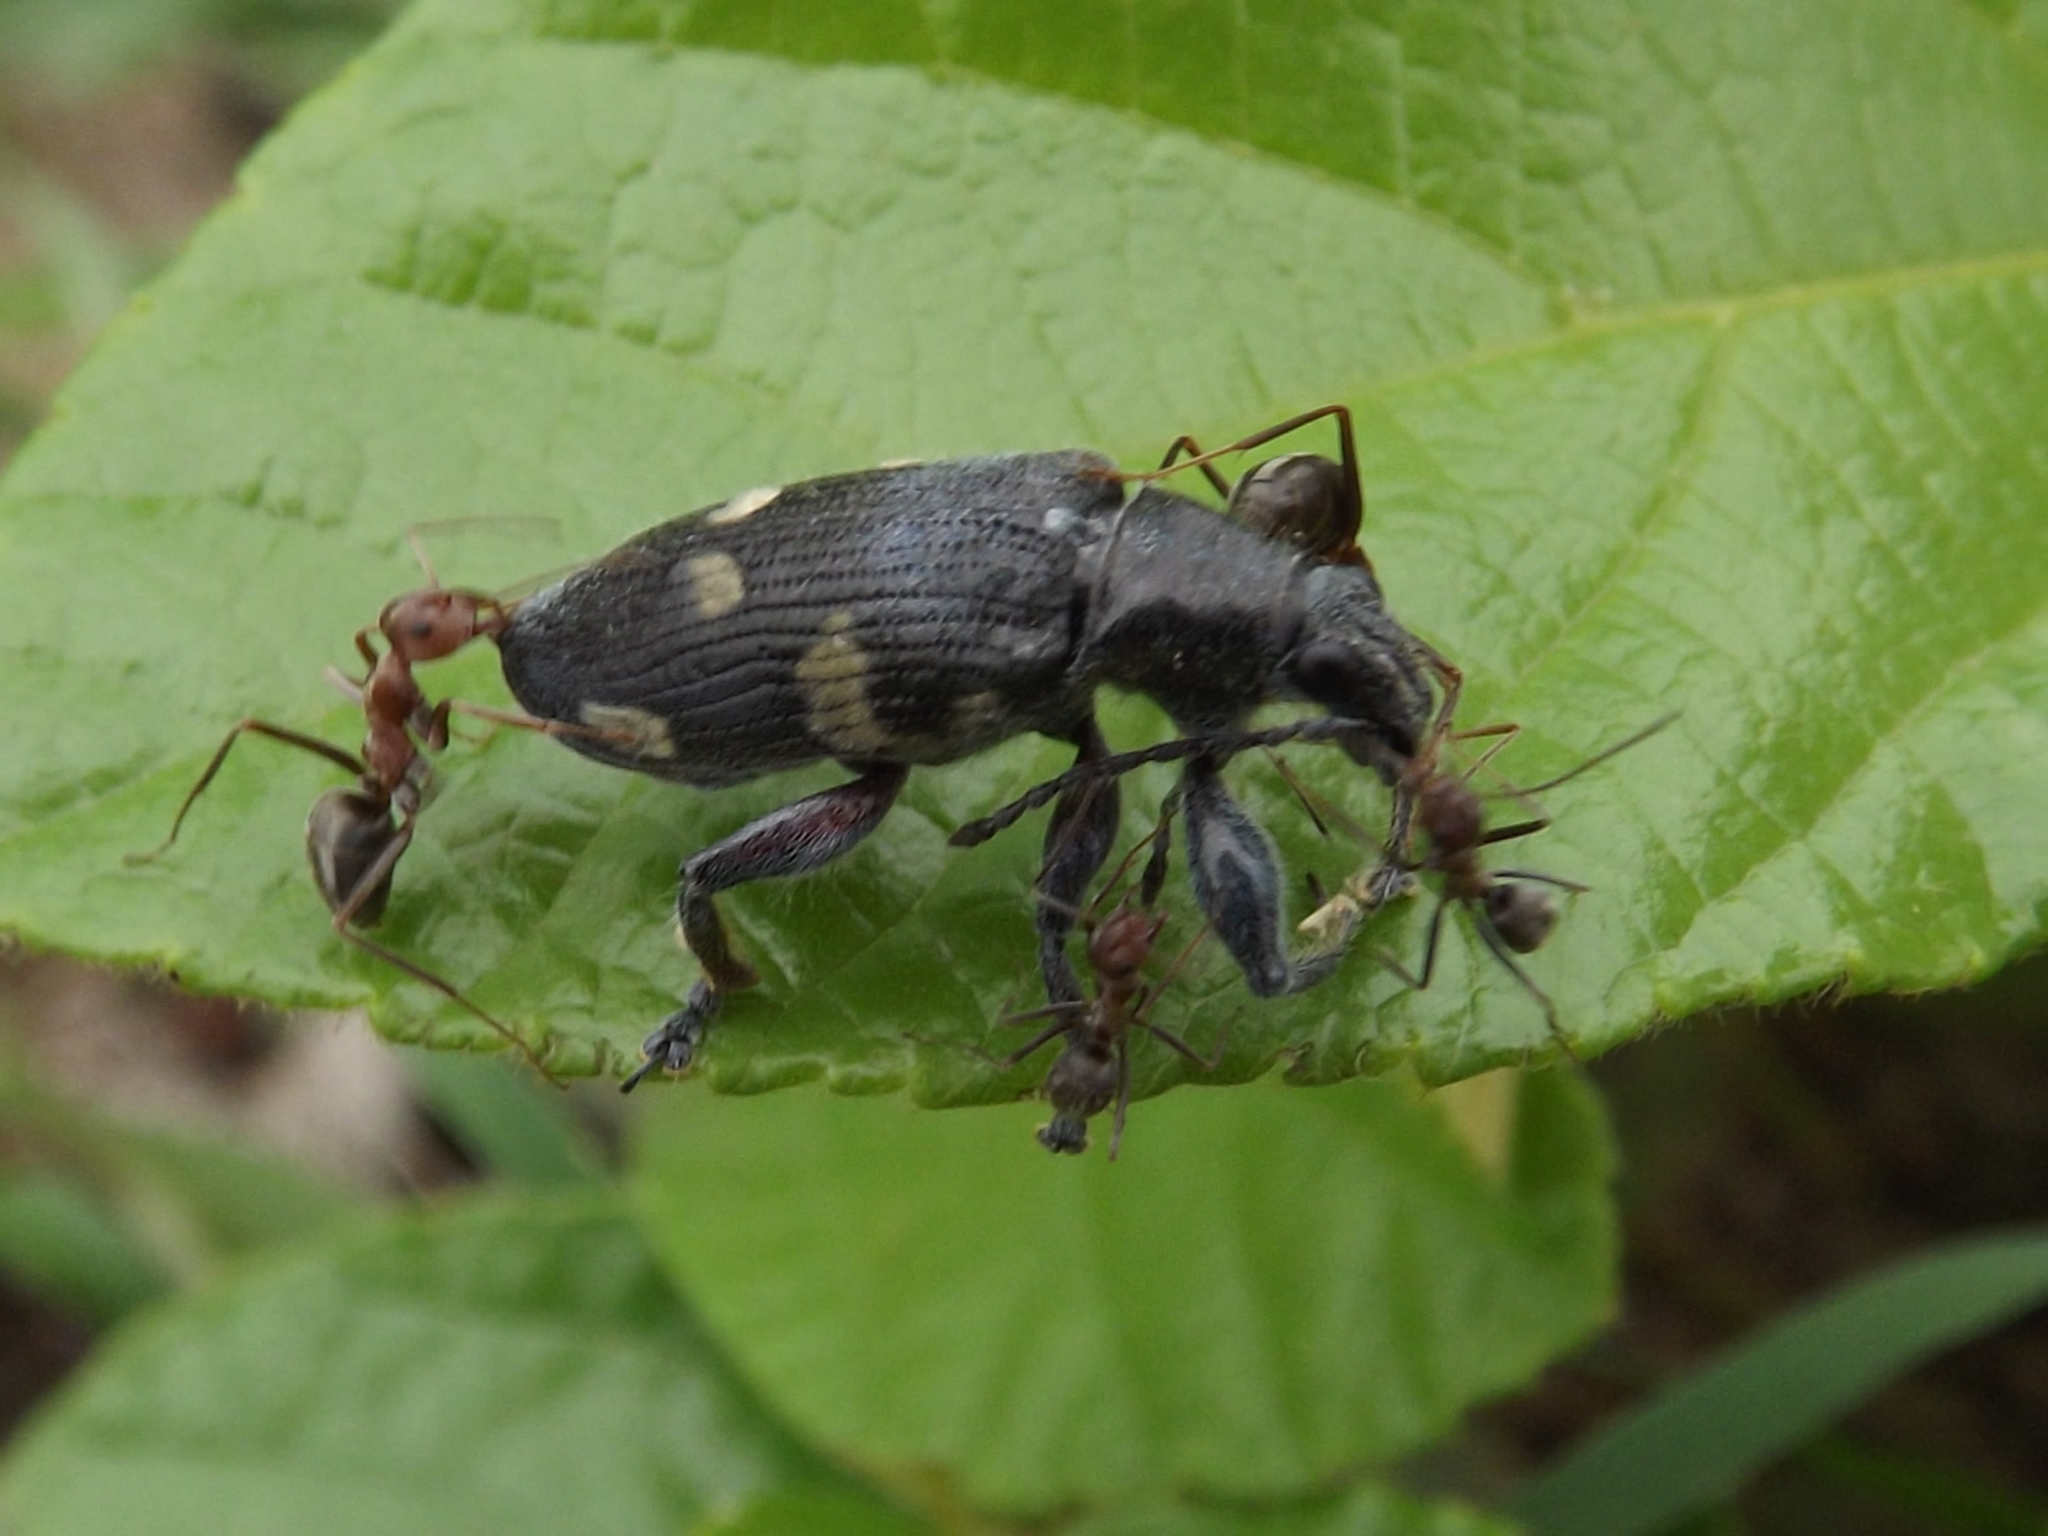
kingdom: Animalia
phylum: Arthropoda
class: Insecta
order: Coleoptera
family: Curculionidae
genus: Polyclaeis
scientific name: Polyclaeis longicornis
